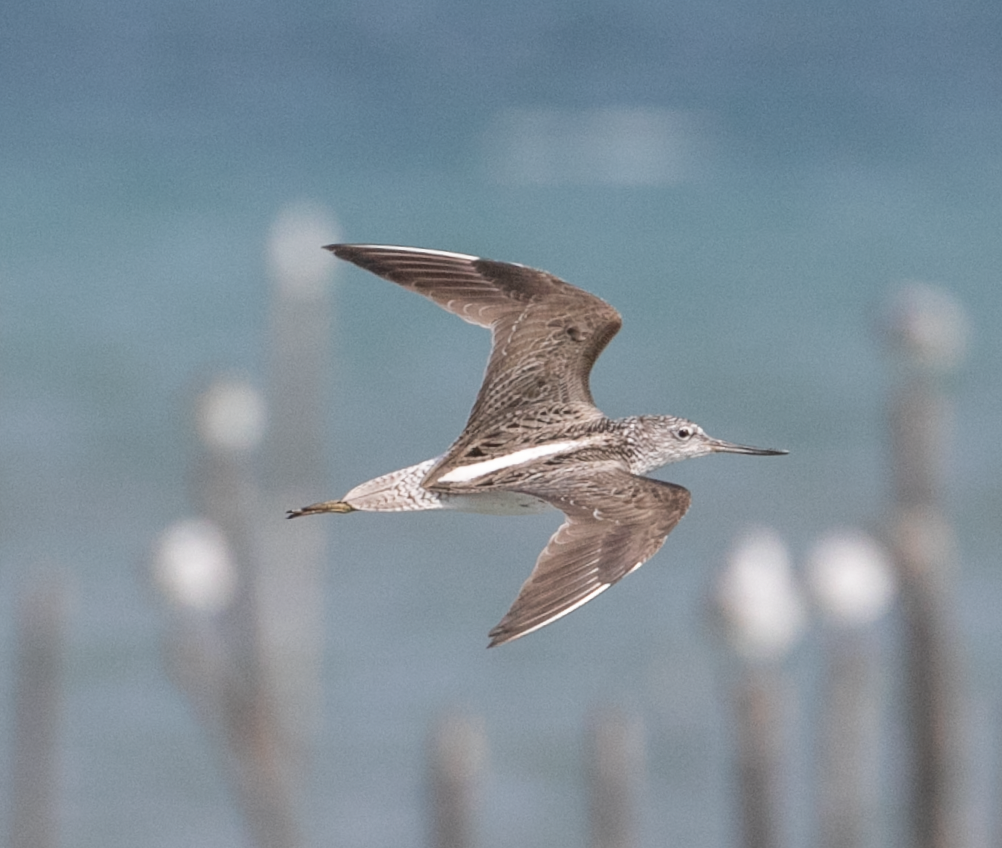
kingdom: Animalia
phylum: Chordata
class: Aves
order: Charadriiformes
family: Scolopacidae
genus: Tringa
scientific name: Tringa nebularia
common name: Common greenshank
